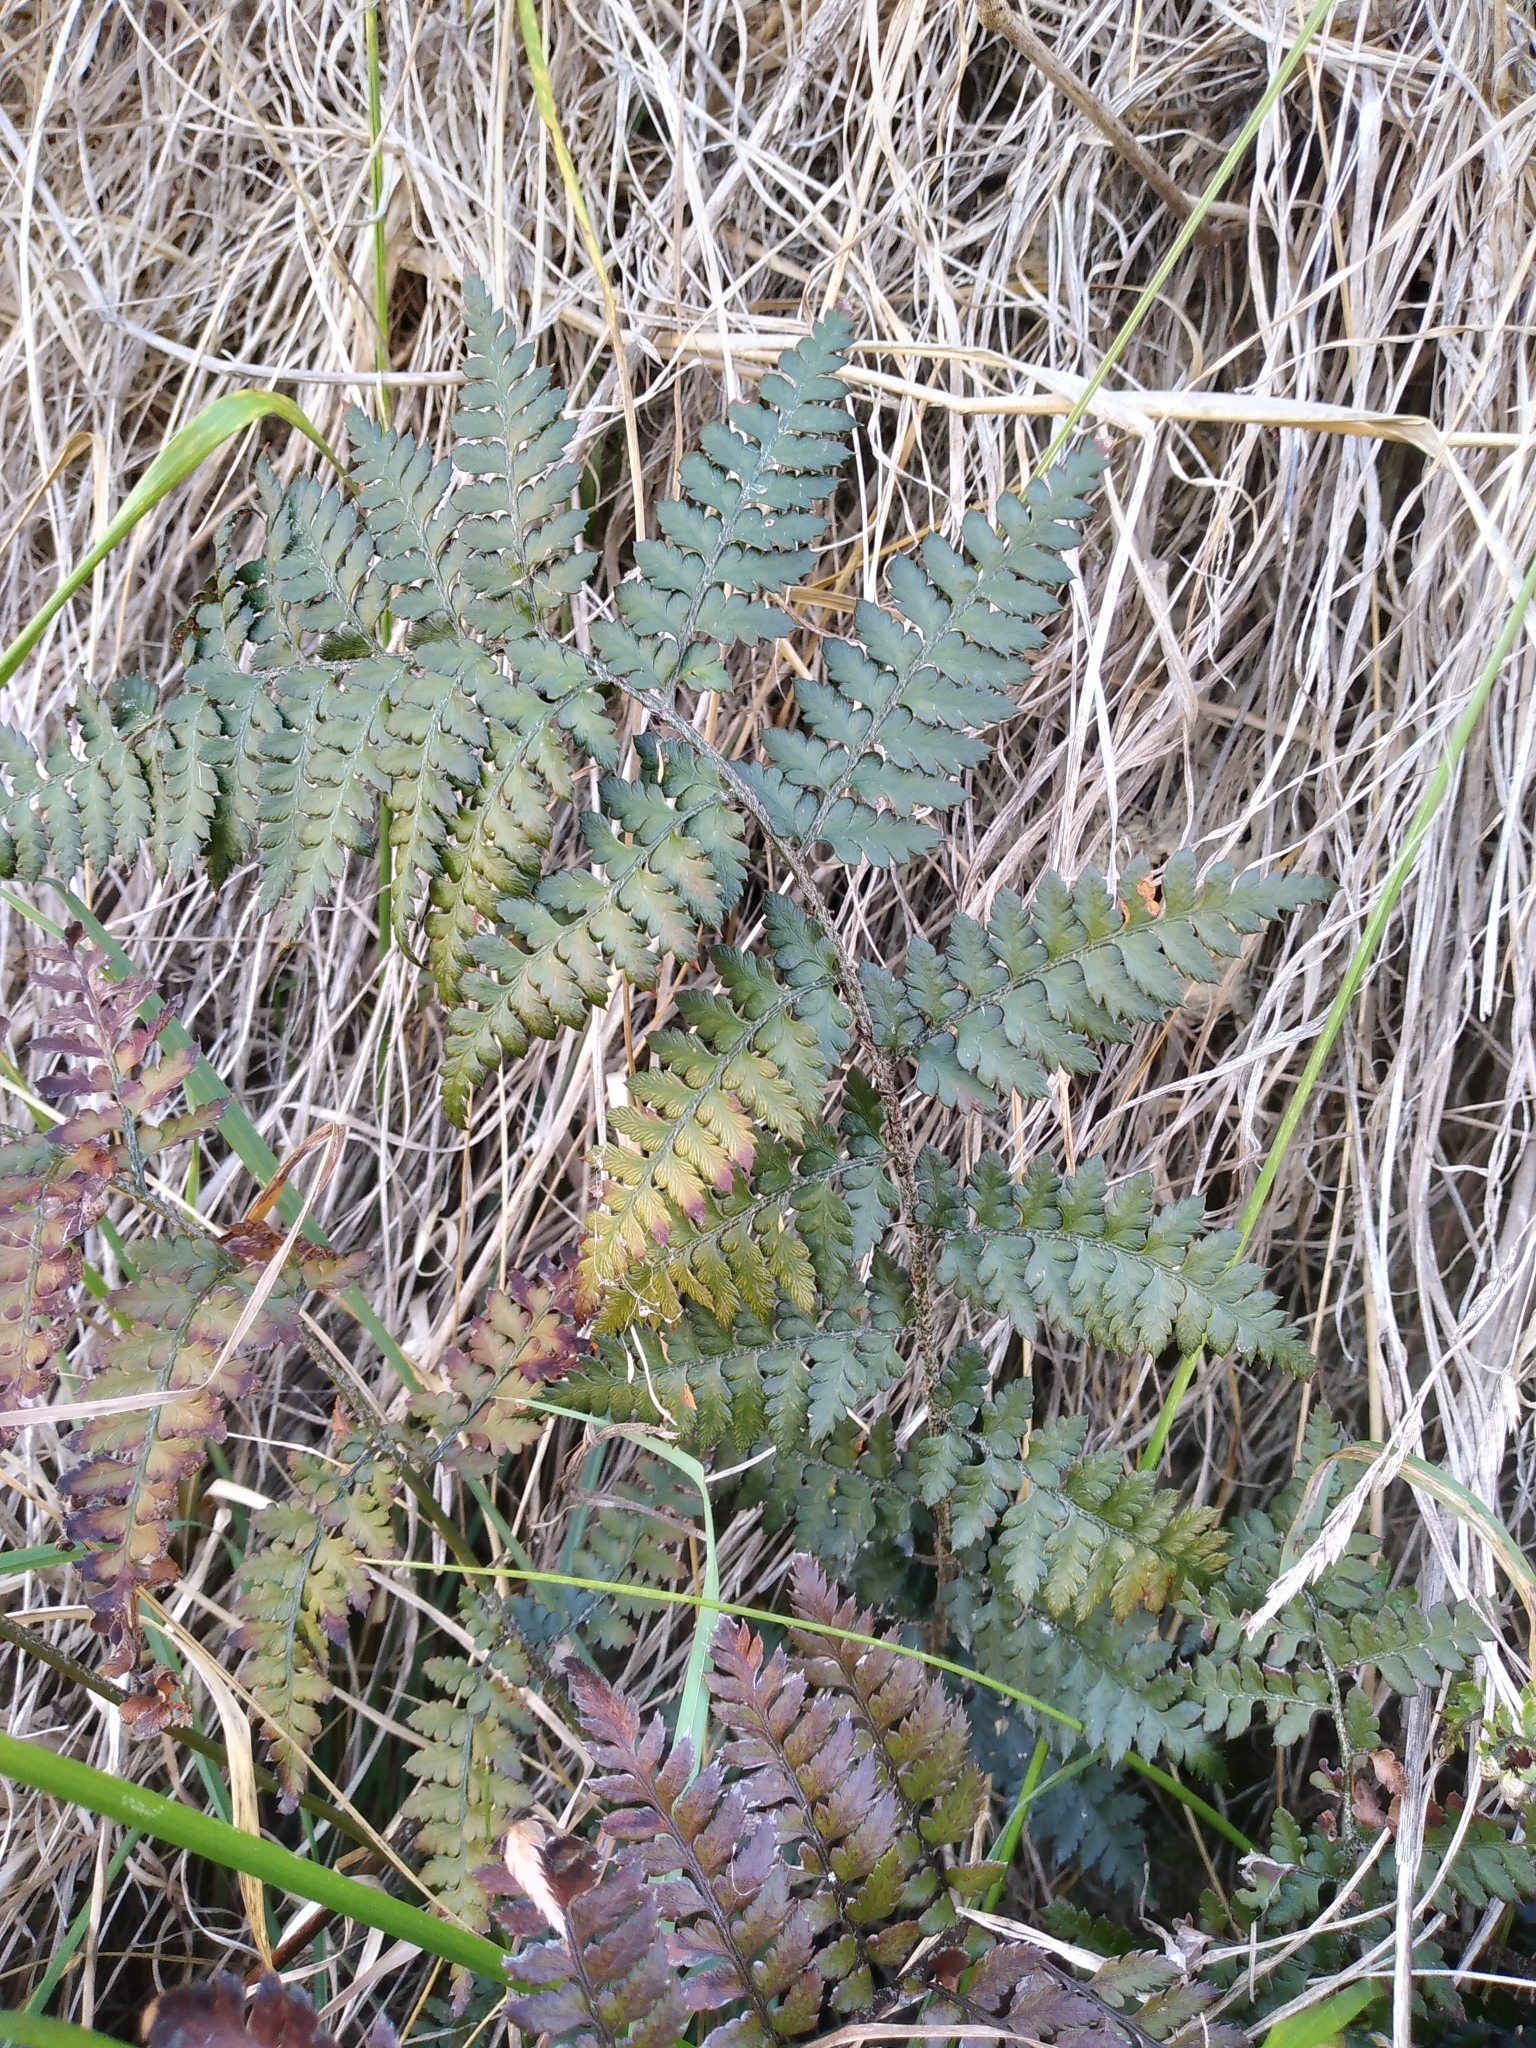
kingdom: Plantae
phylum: Tracheophyta
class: Polypodiopsida
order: Polypodiales
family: Dryopteridaceae
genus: Polystichum
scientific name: Polystichum oculatum
